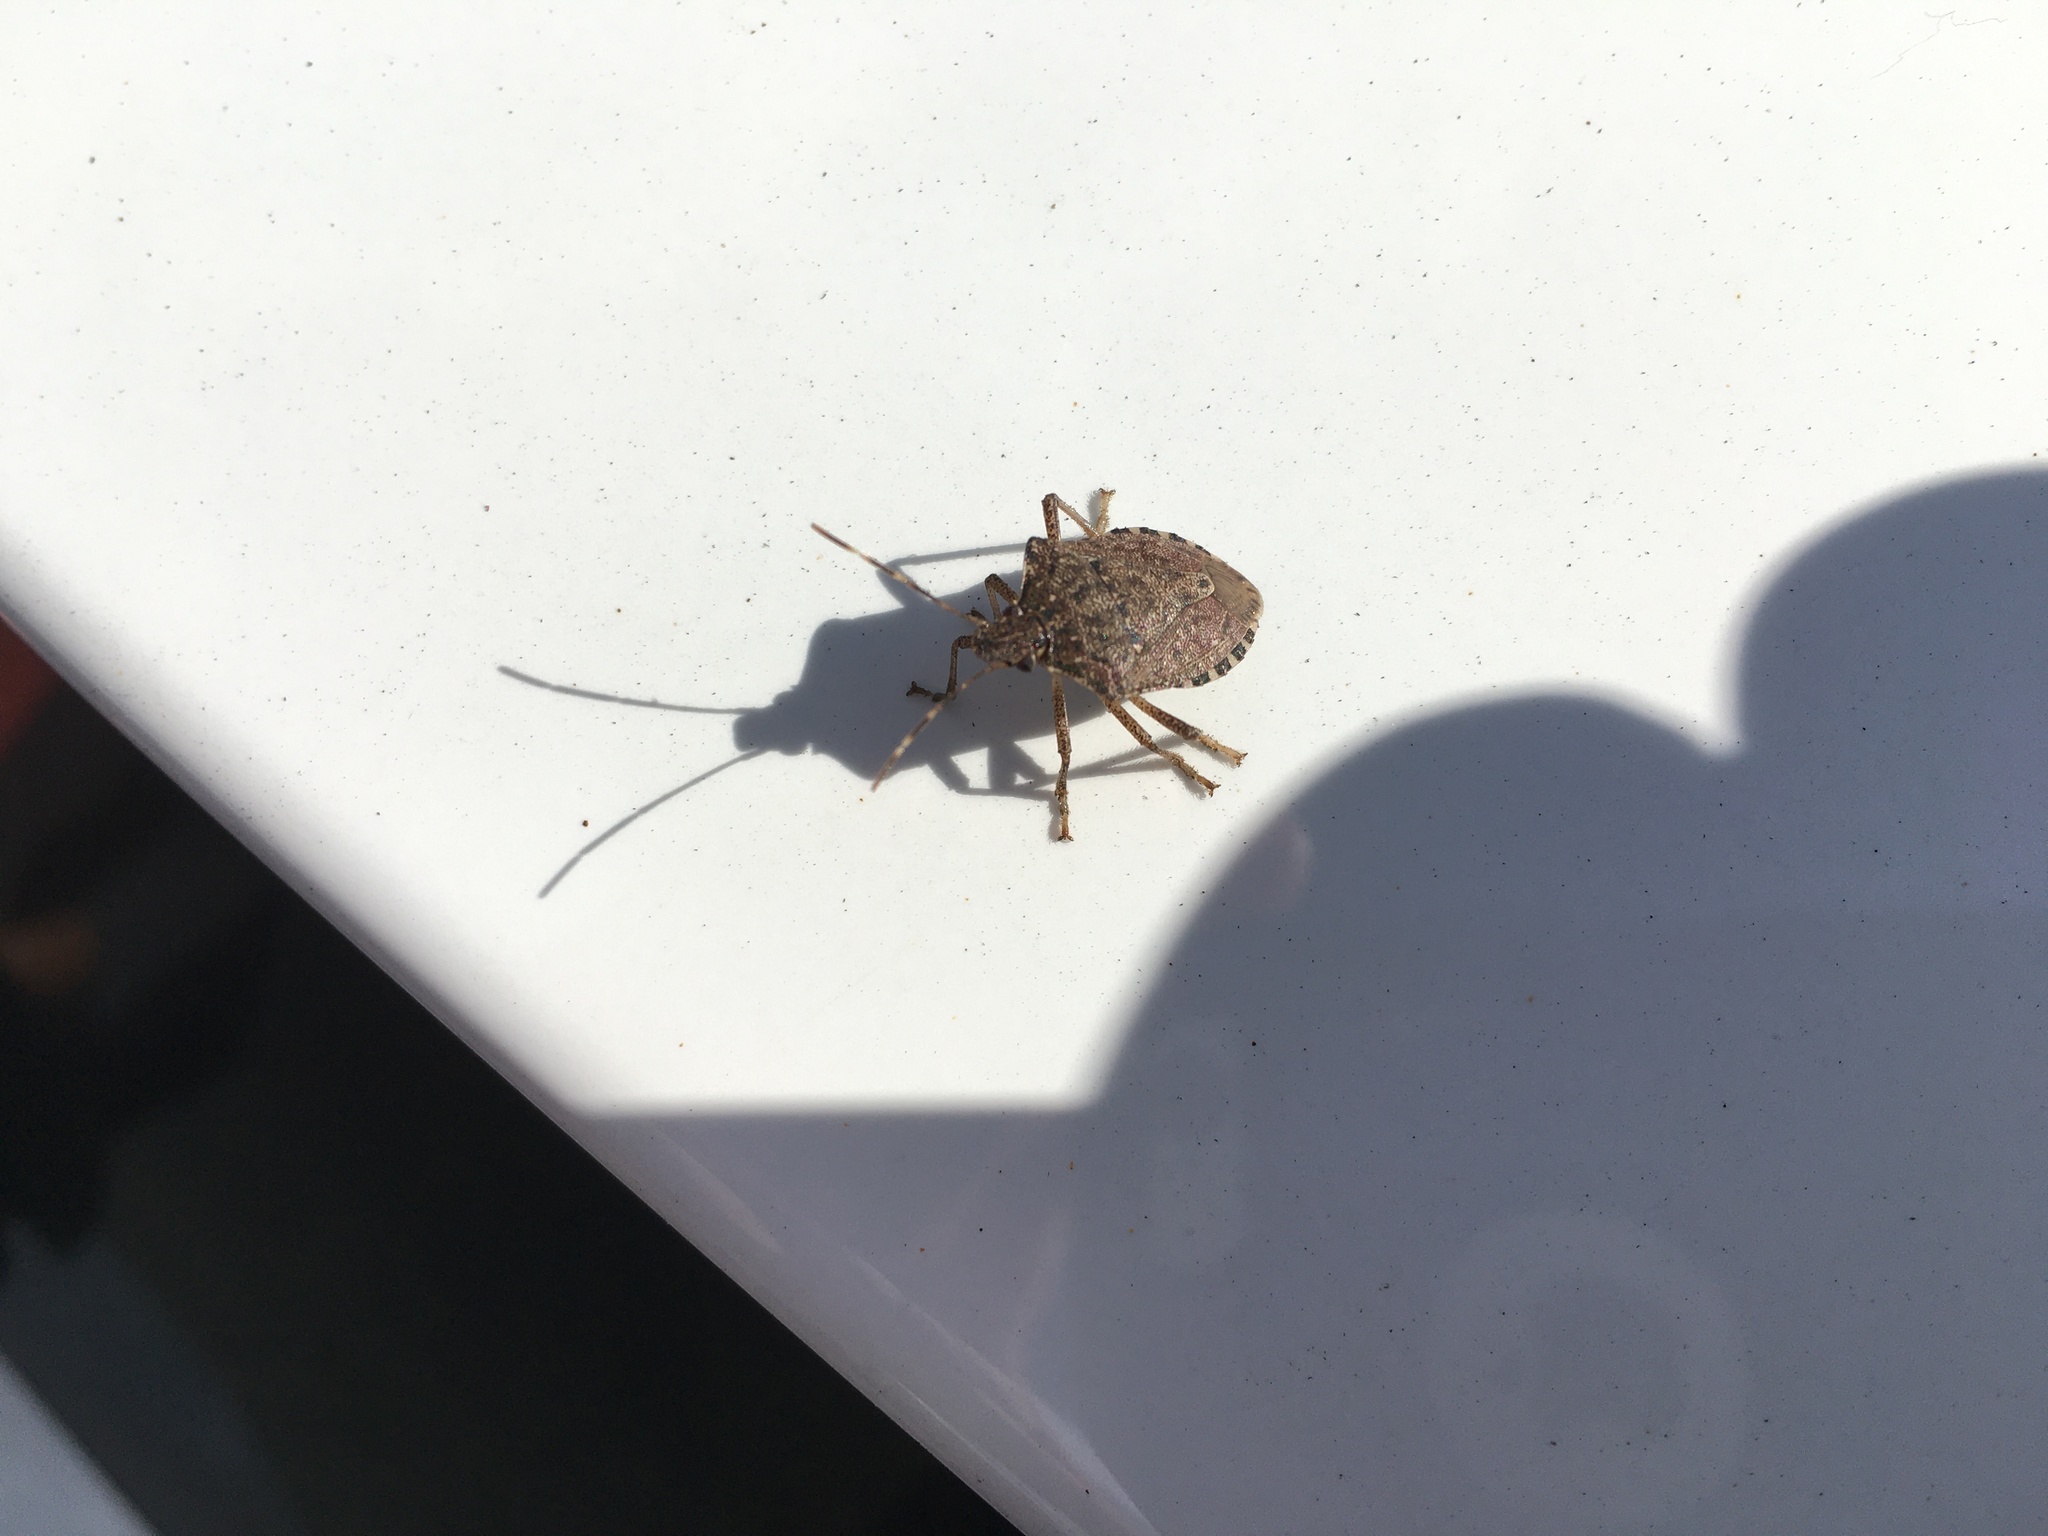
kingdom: Animalia
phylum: Arthropoda
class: Insecta
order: Hemiptera
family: Pentatomidae
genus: Halyomorpha
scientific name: Halyomorpha halys
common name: Brown marmorated stink bug
